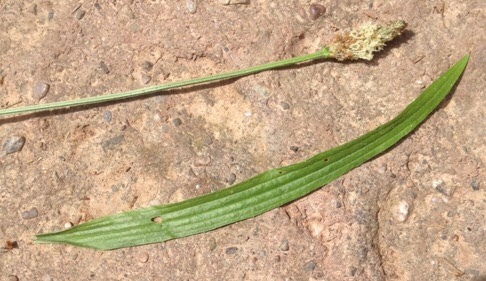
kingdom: Plantae
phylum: Tracheophyta
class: Magnoliopsida
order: Lamiales
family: Plantaginaceae
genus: Plantago
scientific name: Plantago lanceolata
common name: Ribwort plantain
